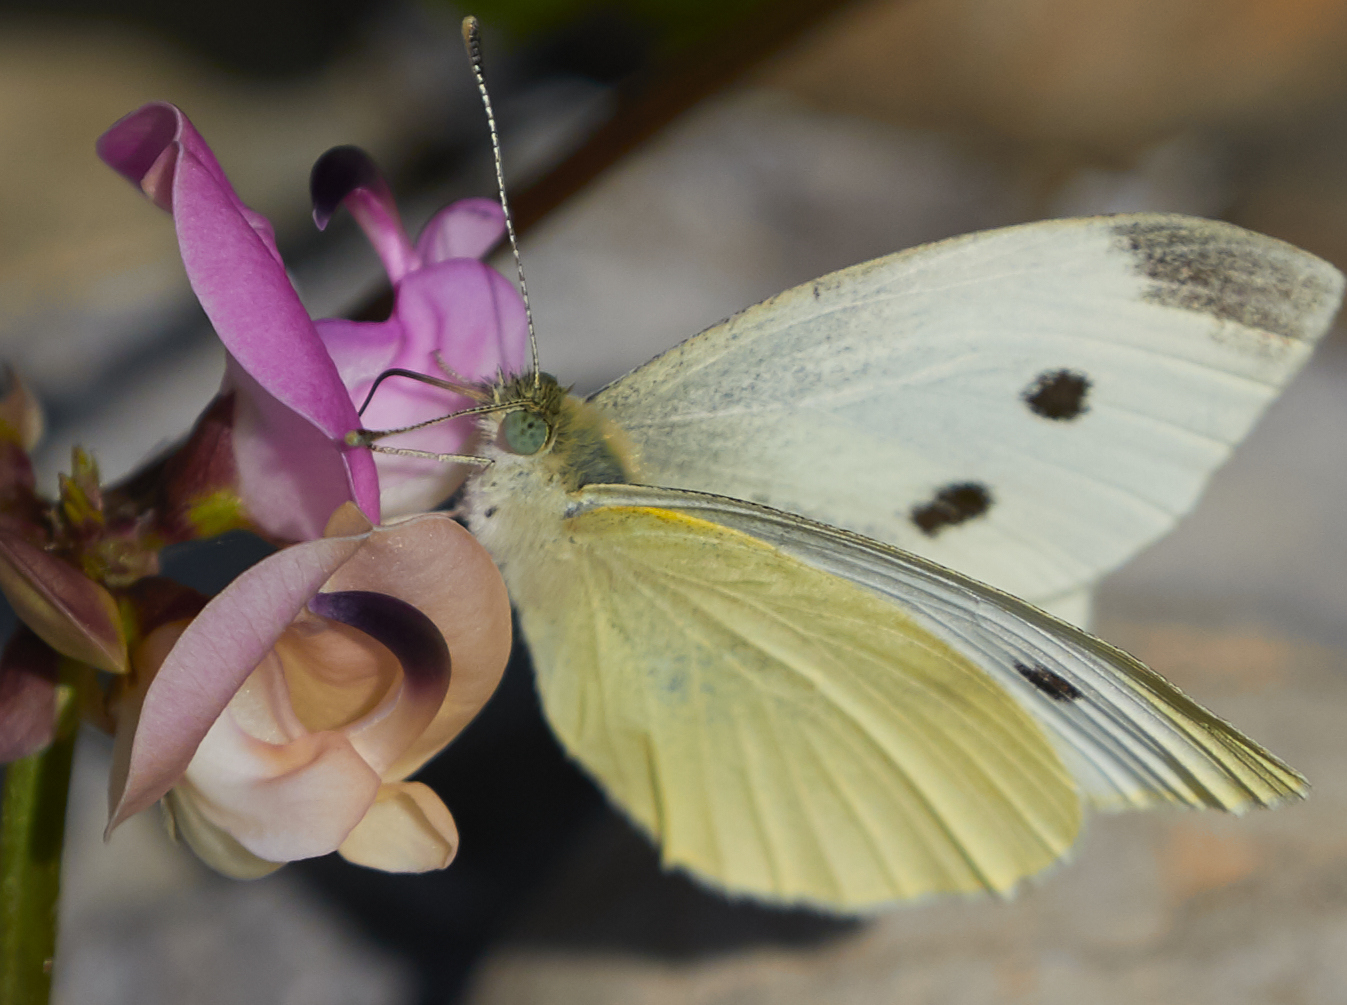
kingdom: Animalia
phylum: Arthropoda
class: Insecta
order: Lepidoptera
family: Pieridae
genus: Pieris
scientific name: Pieris rapae
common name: Small white
